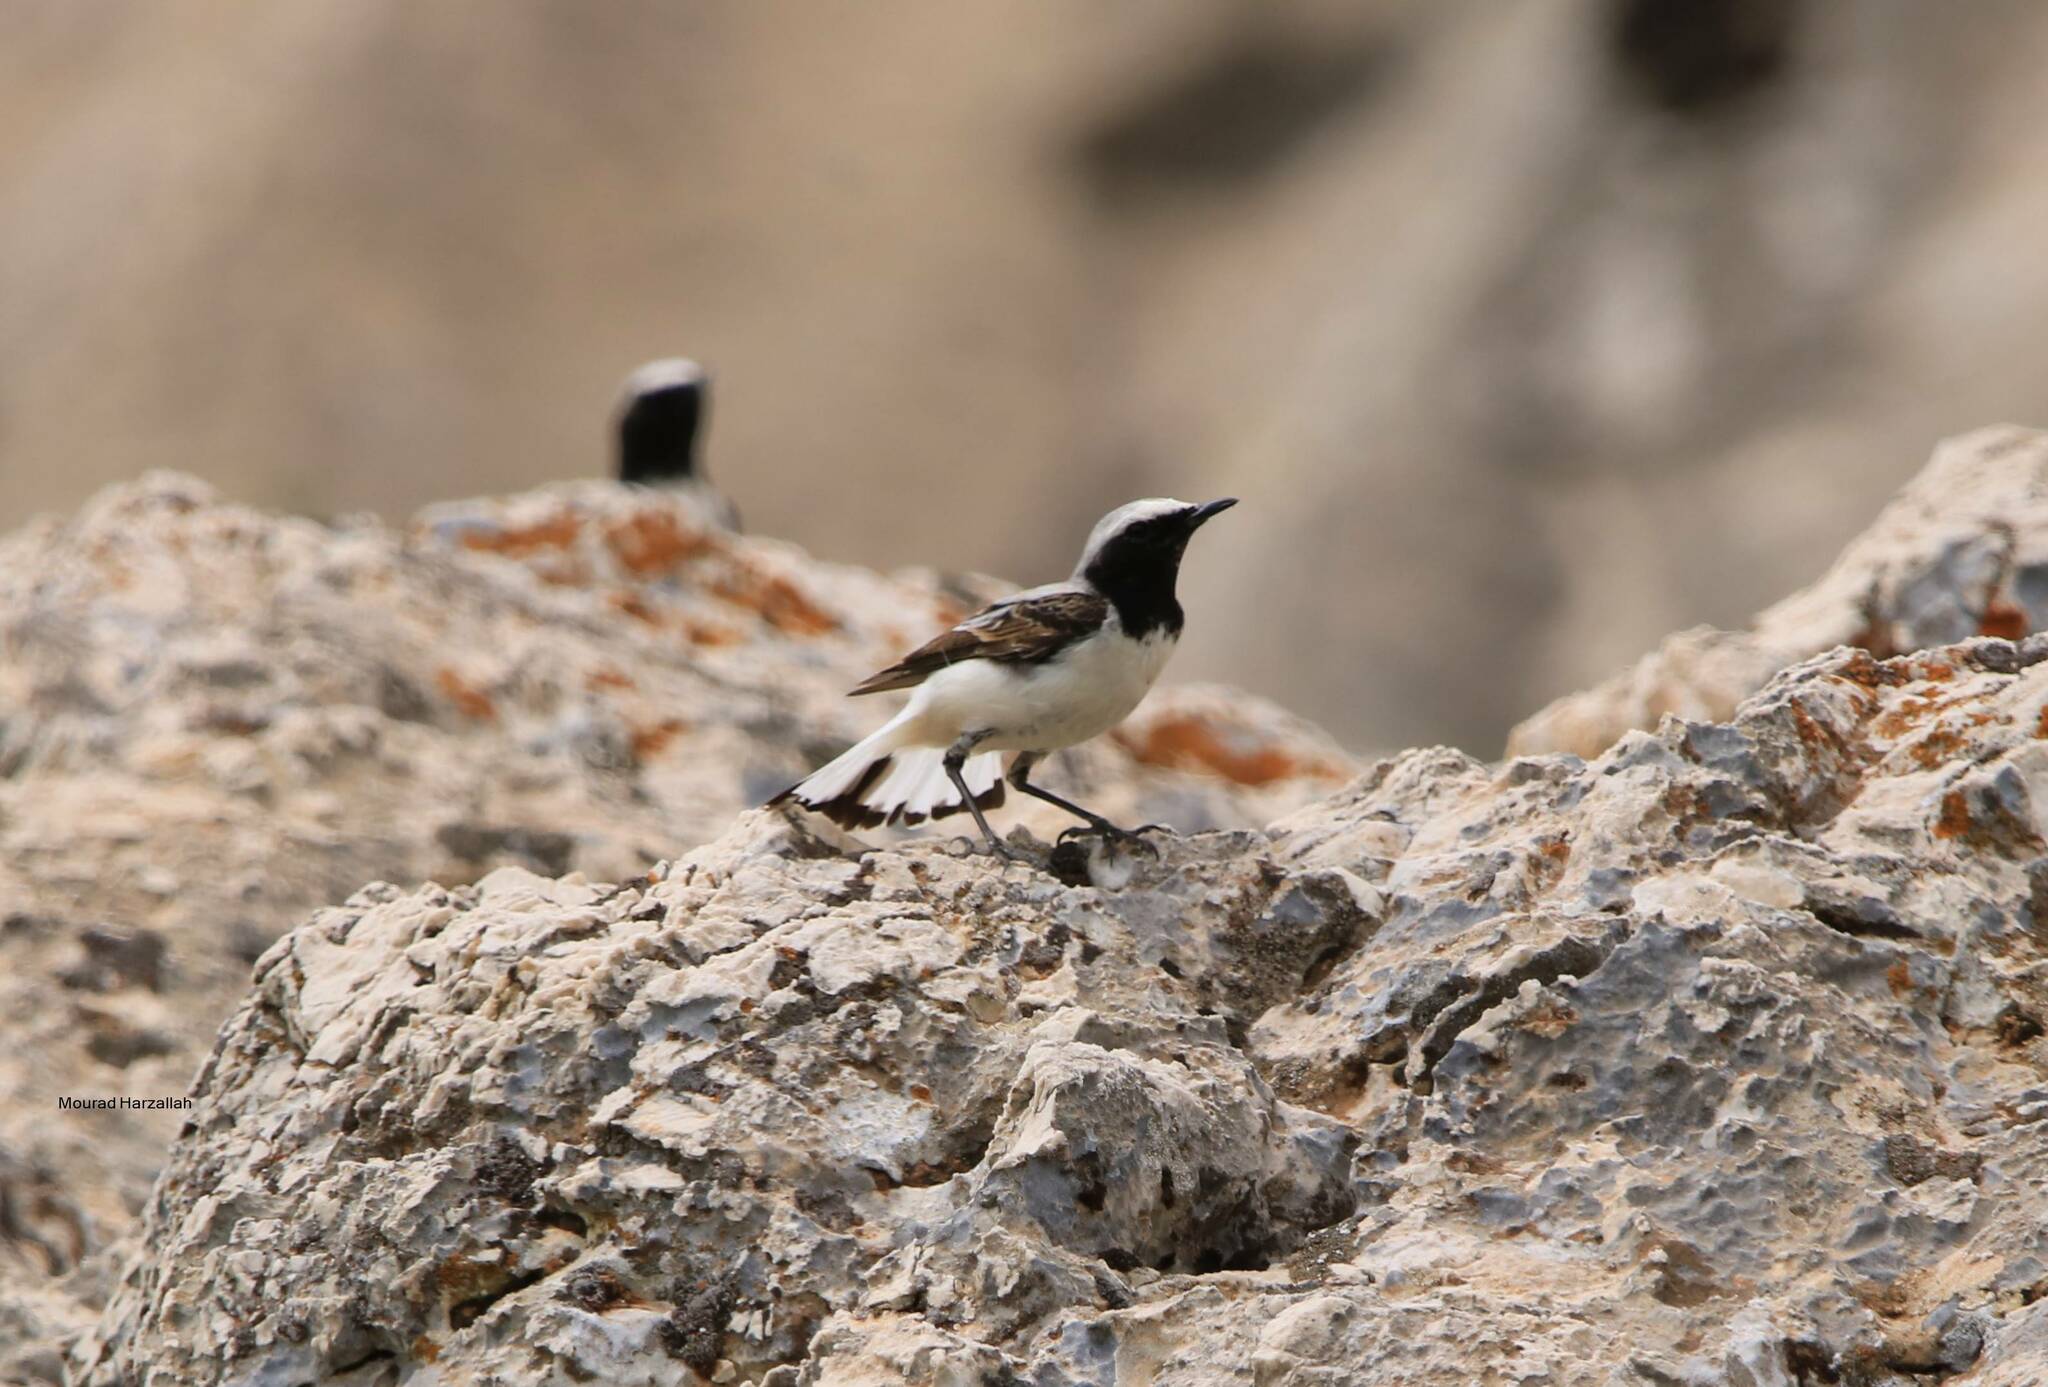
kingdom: Animalia
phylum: Chordata
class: Aves
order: Passeriformes
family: Muscicapidae
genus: Oenanthe
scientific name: Oenanthe oenanthe
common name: Northern wheatear
